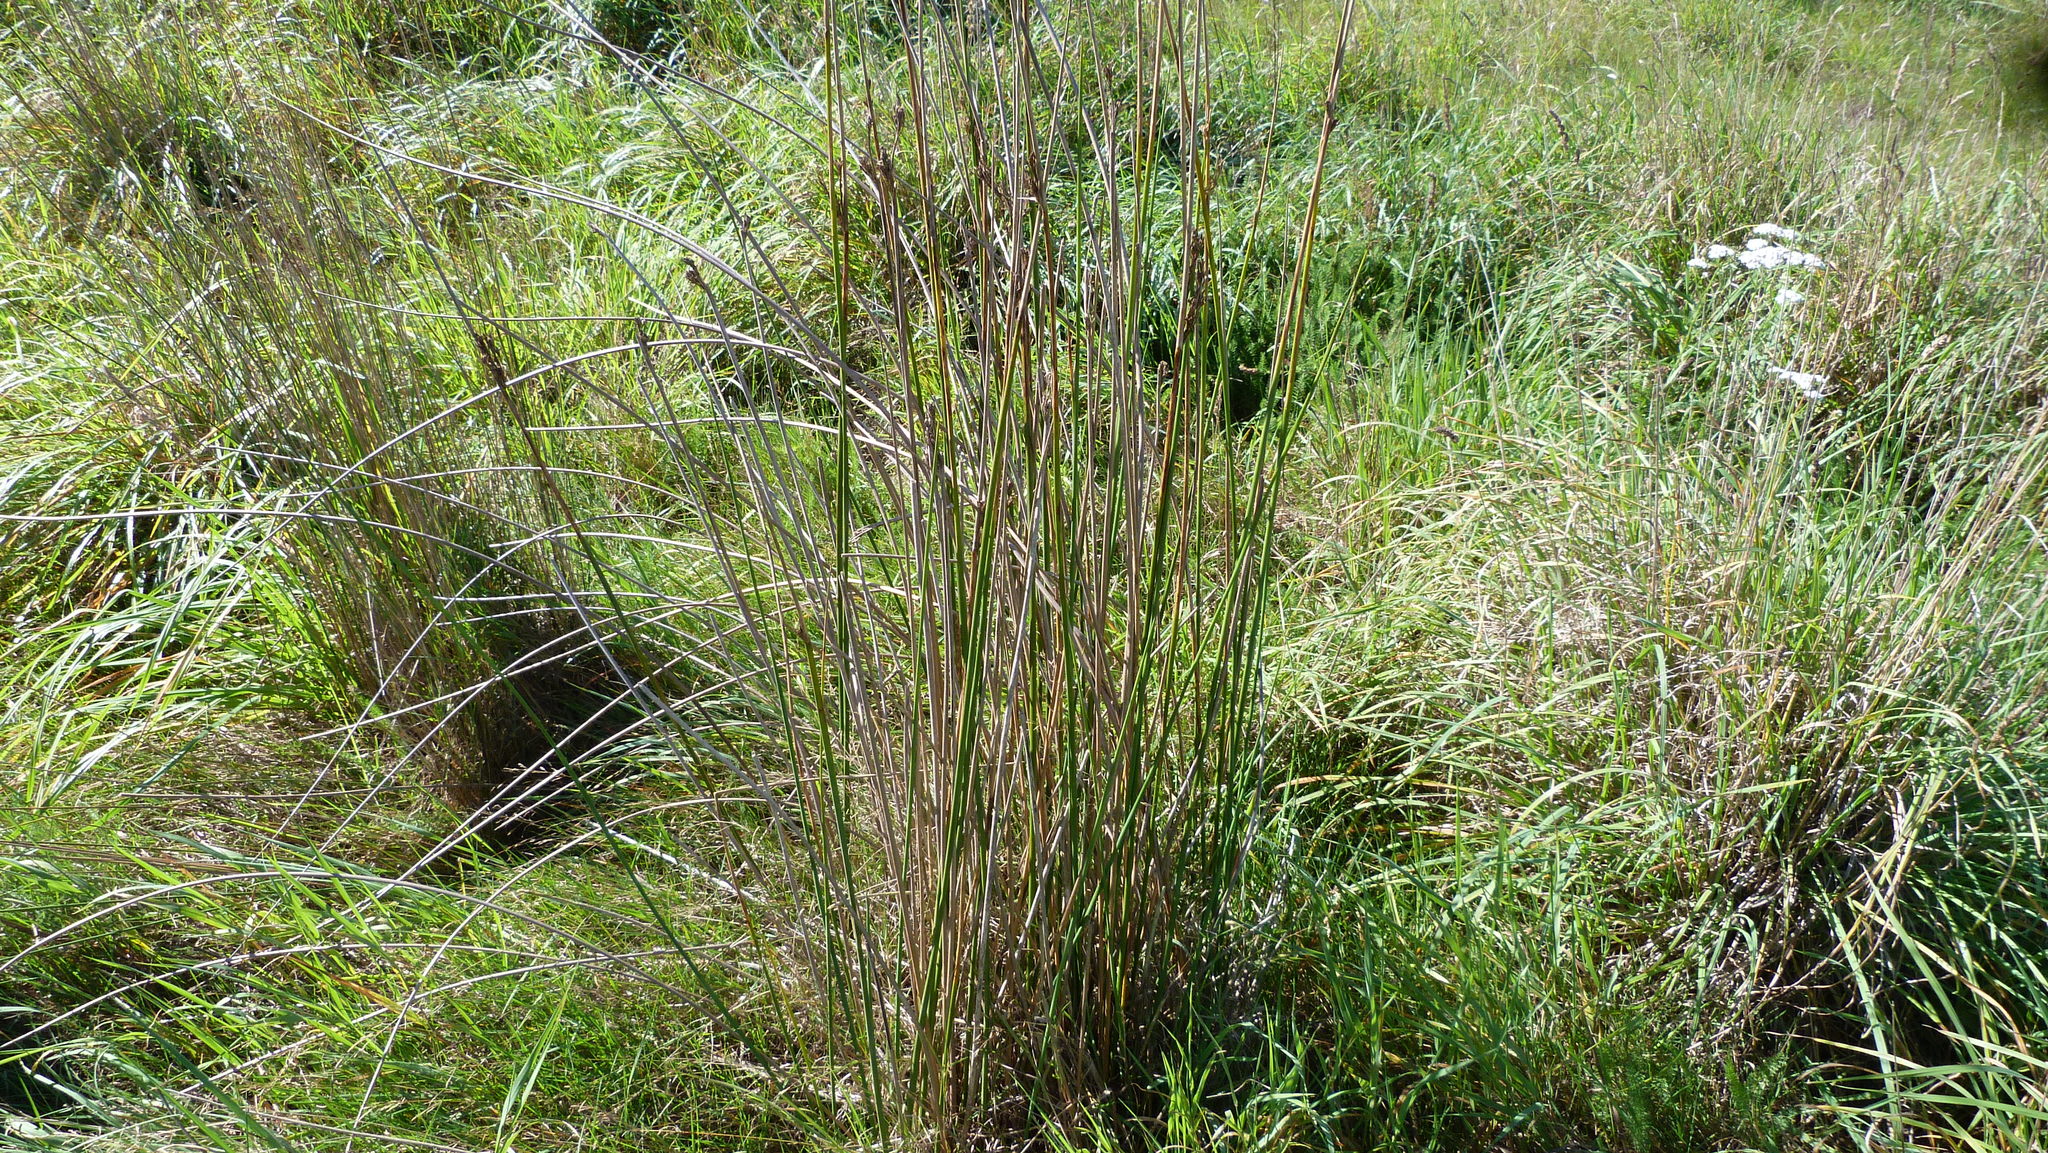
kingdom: Plantae
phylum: Tracheophyta
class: Liliopsida
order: Poales
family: Juncaceae
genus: Juncus
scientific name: Juncus pallidus
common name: Great soft-rush
